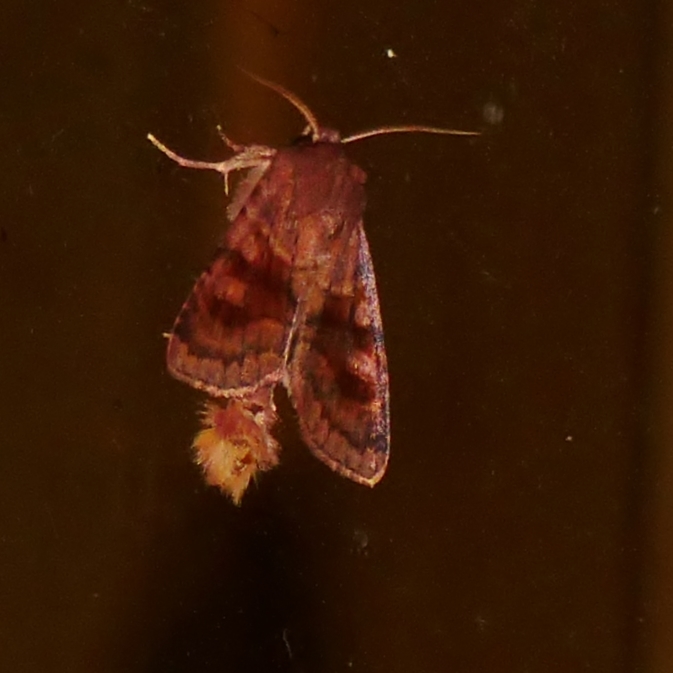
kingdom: Animalia
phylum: Arthropoda
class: Insecta
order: Lepidoptera
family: Noctuidae
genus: Nephelodes
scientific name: Nephelodes minians
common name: Bronzed cutworm
